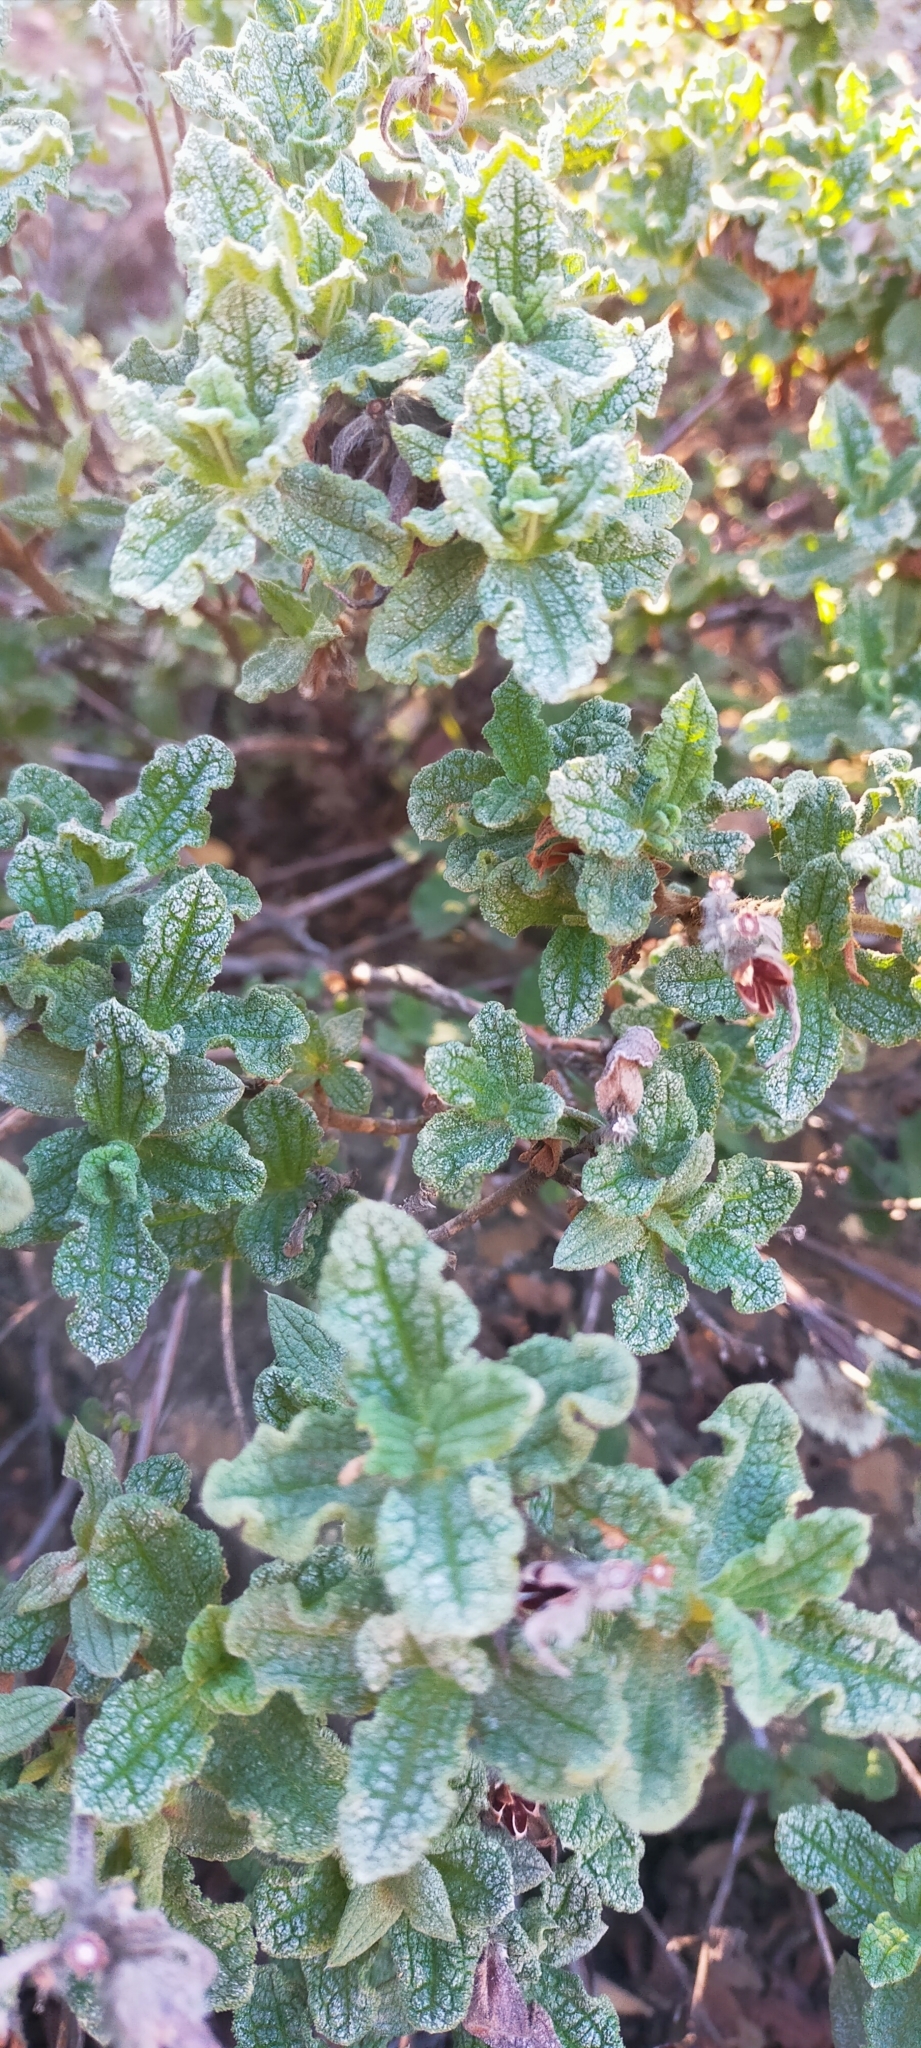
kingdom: Plantae
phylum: Tracheophyta
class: Magnoliopsida
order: Malvales
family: Cistaceae
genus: Cistus
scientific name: Cistus crispus
